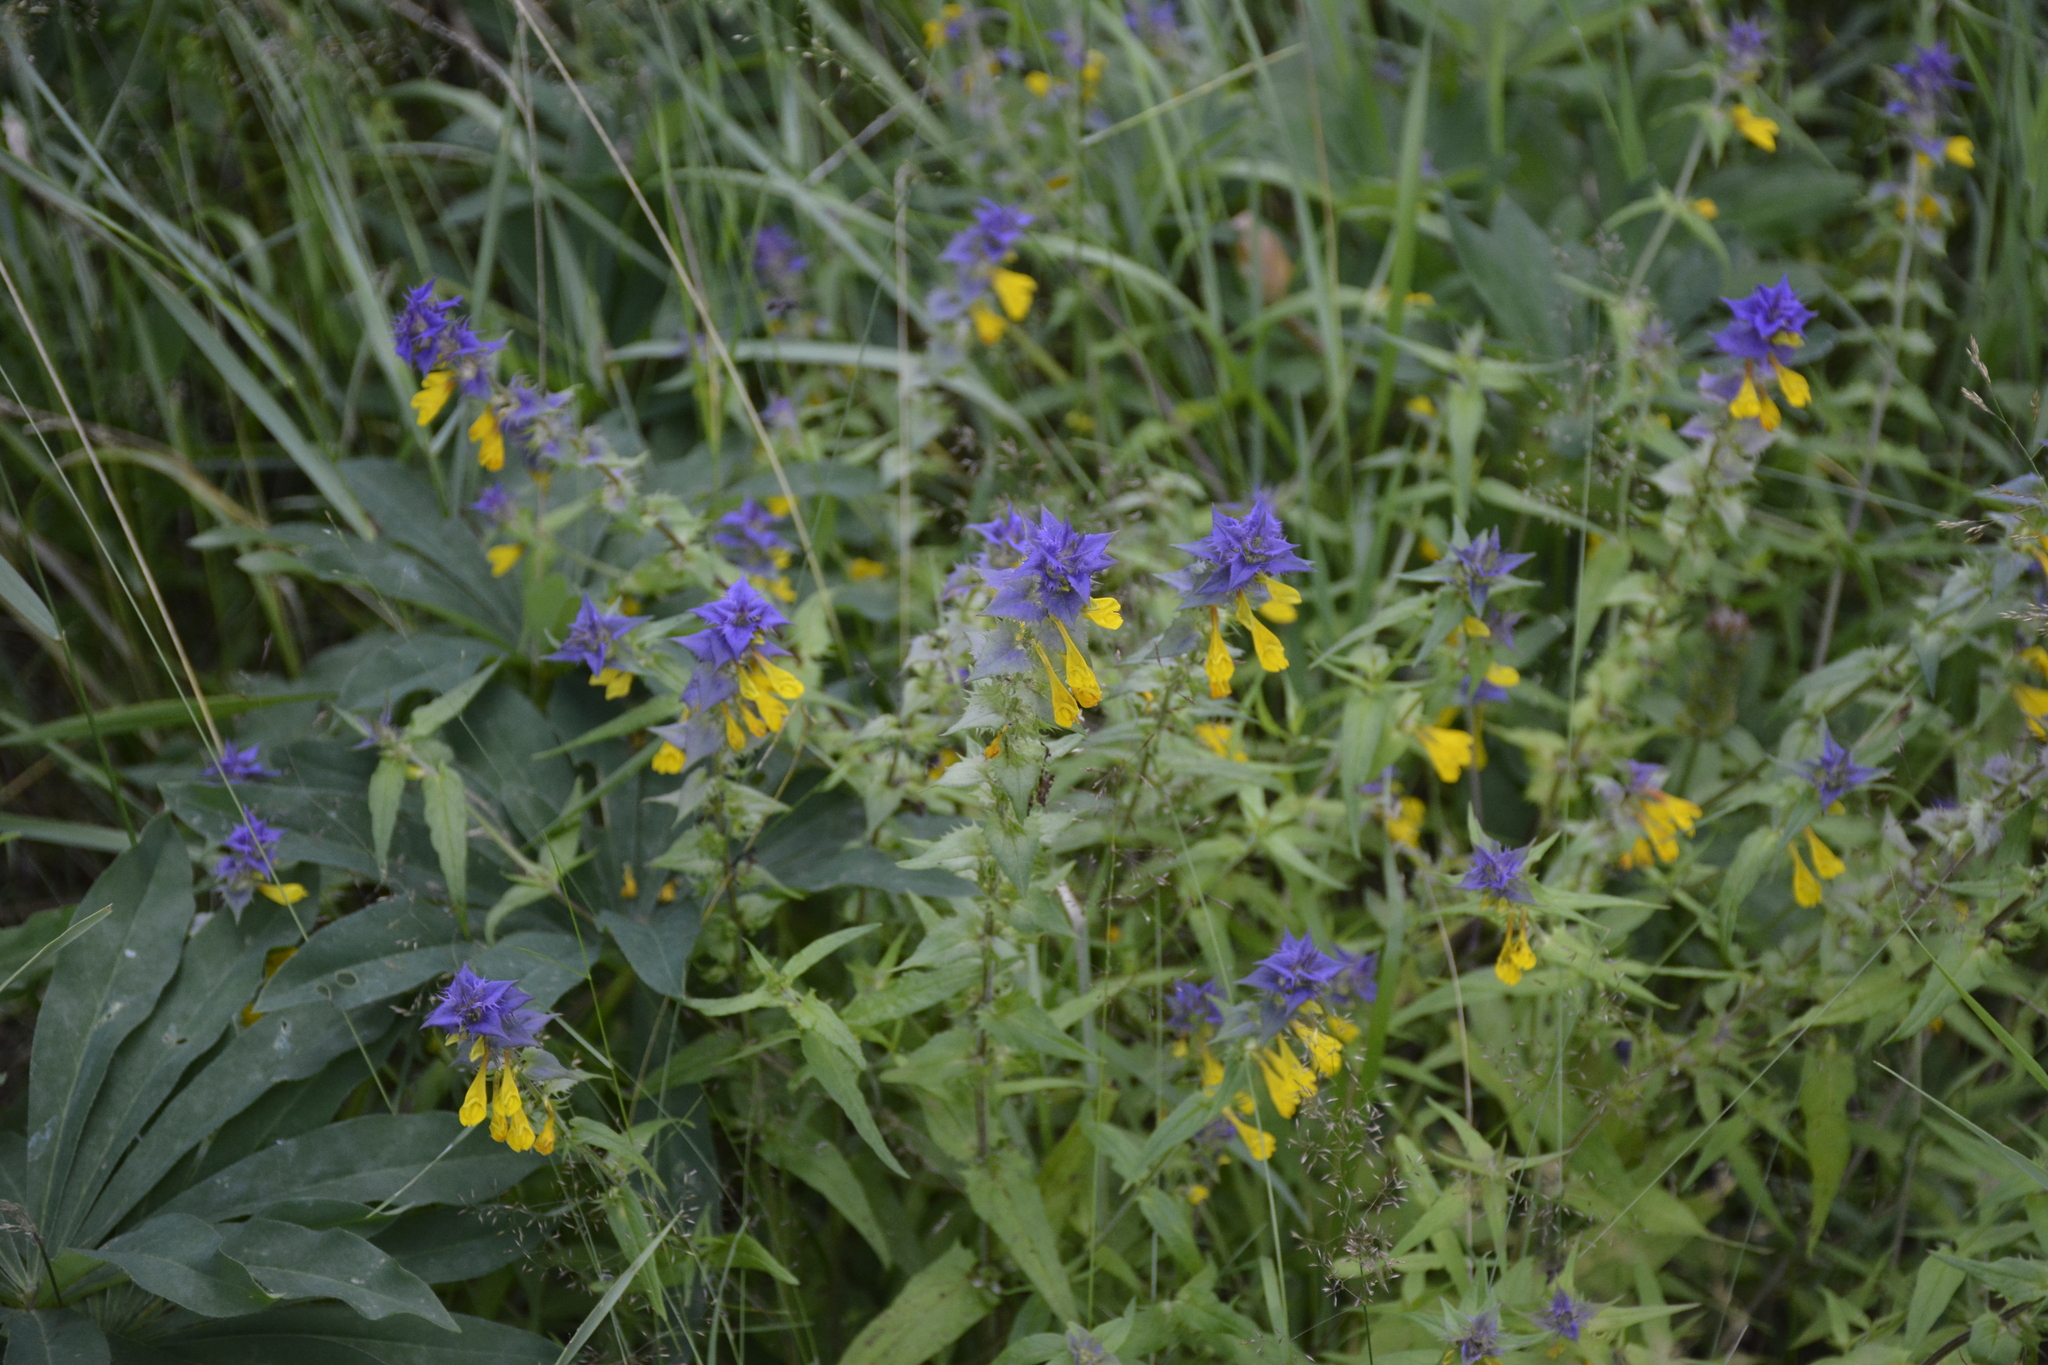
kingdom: Plantae
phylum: Tracheophyta
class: Magnoliopsida
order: Lamiales
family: Orobanchaceae
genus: Melampyrum
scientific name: Melampyrum nemorosum
